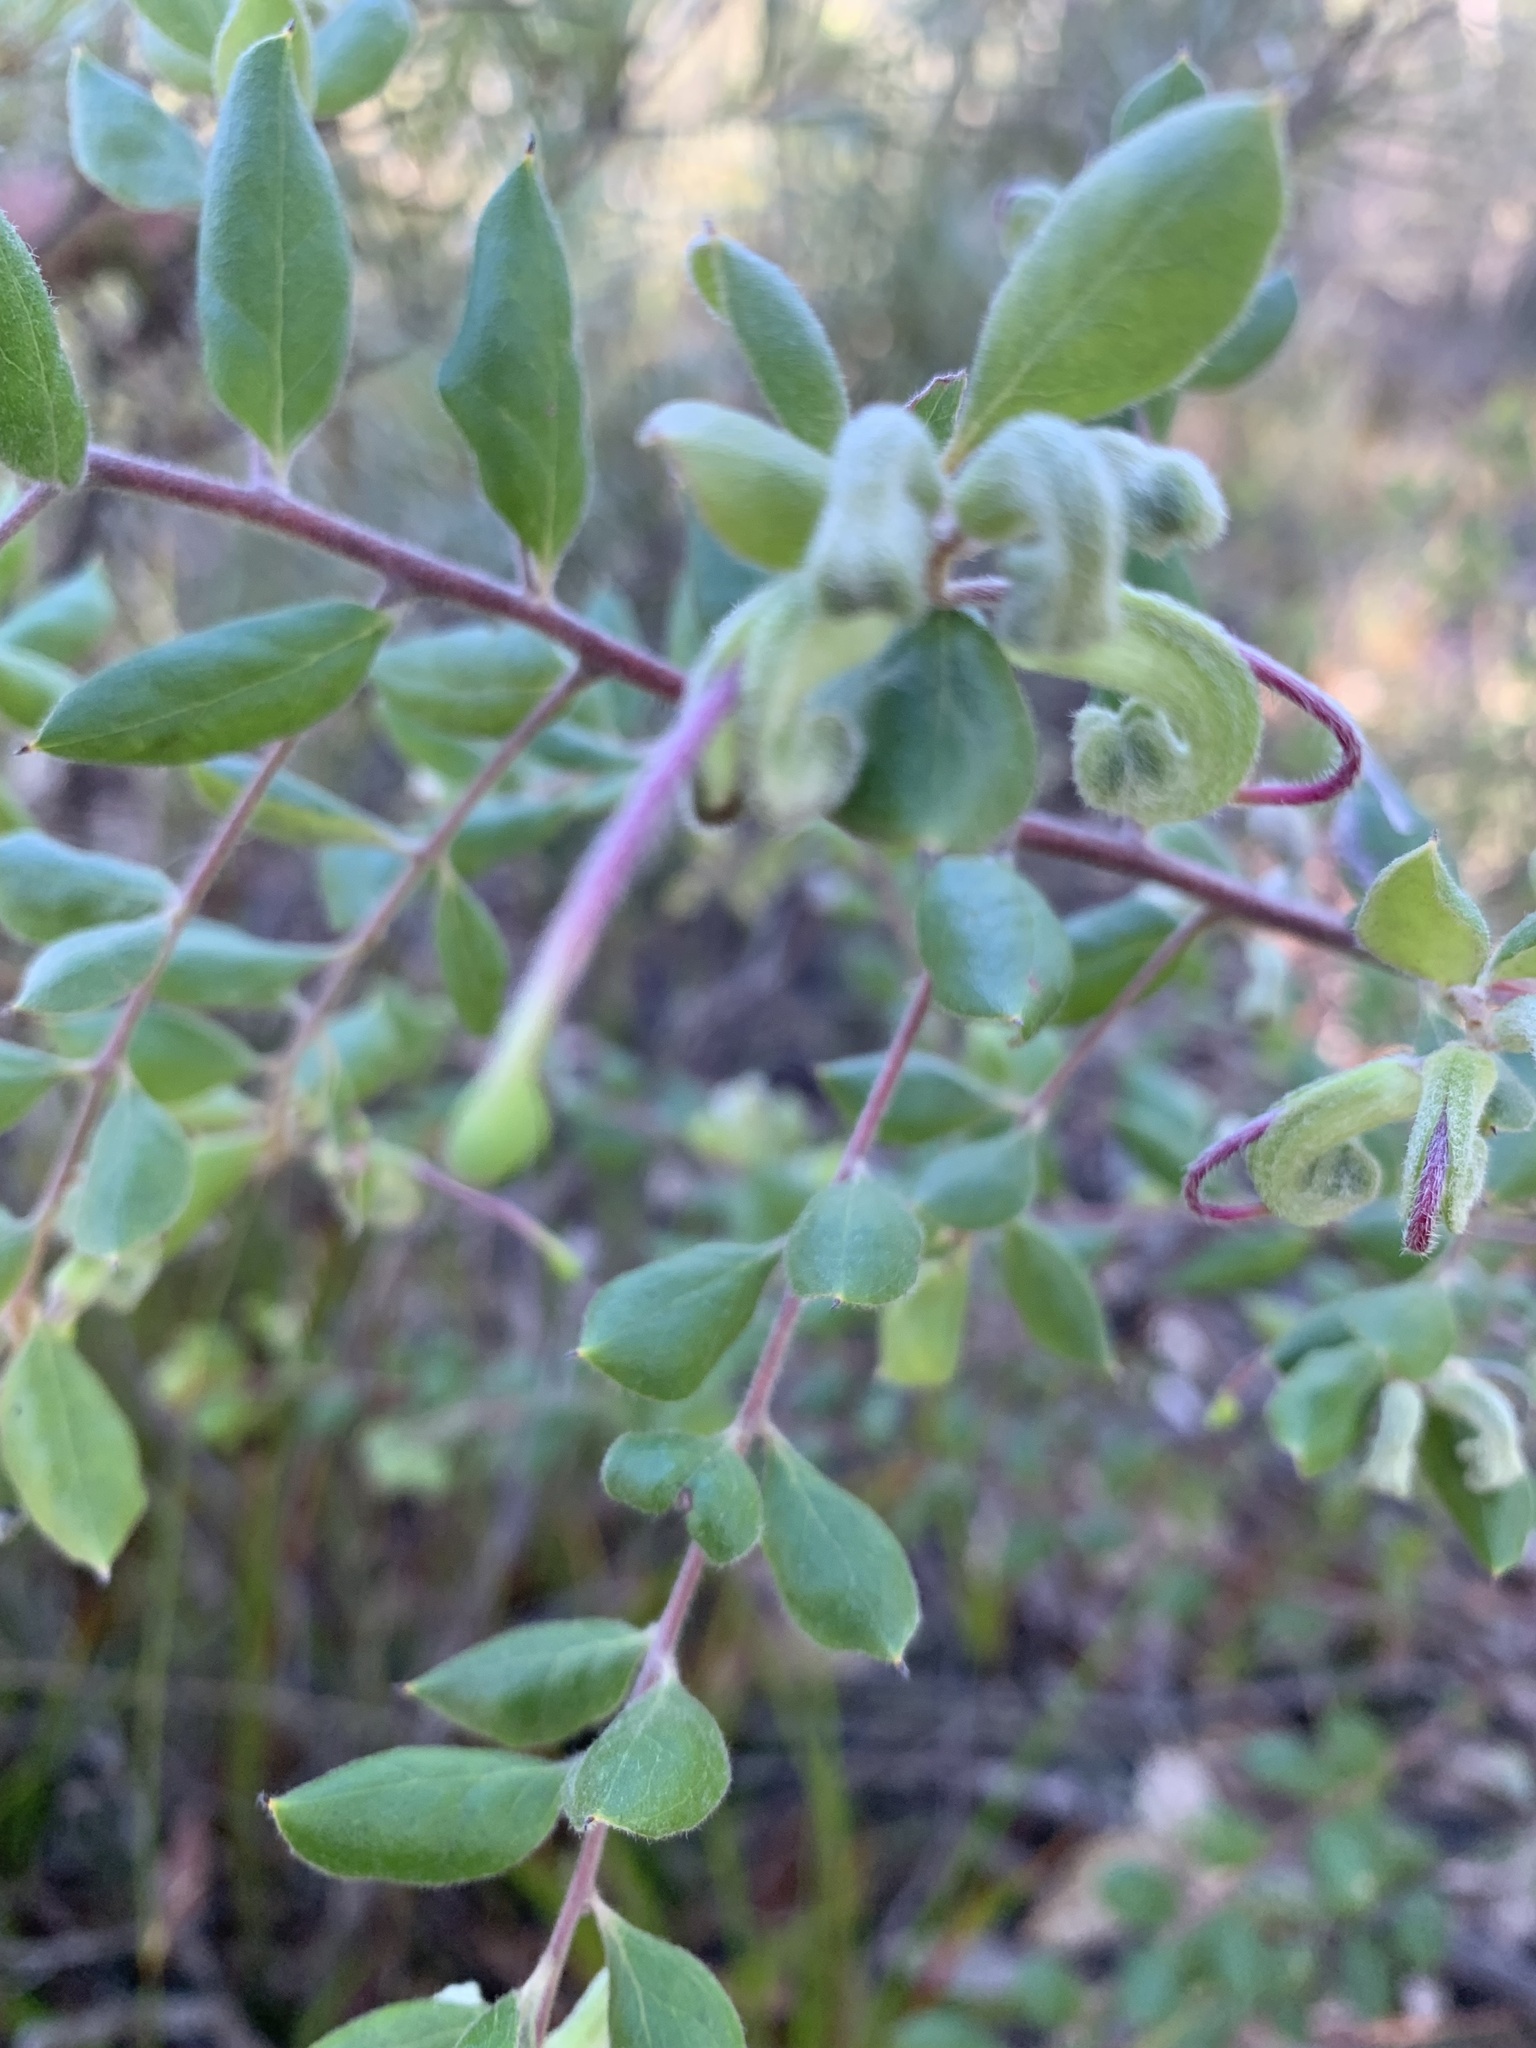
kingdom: Plantae
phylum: Tracheophyta
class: Magnoliopsida
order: Proteales
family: Proteaceae
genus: Grevillea
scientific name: Grevillea mucronulata
